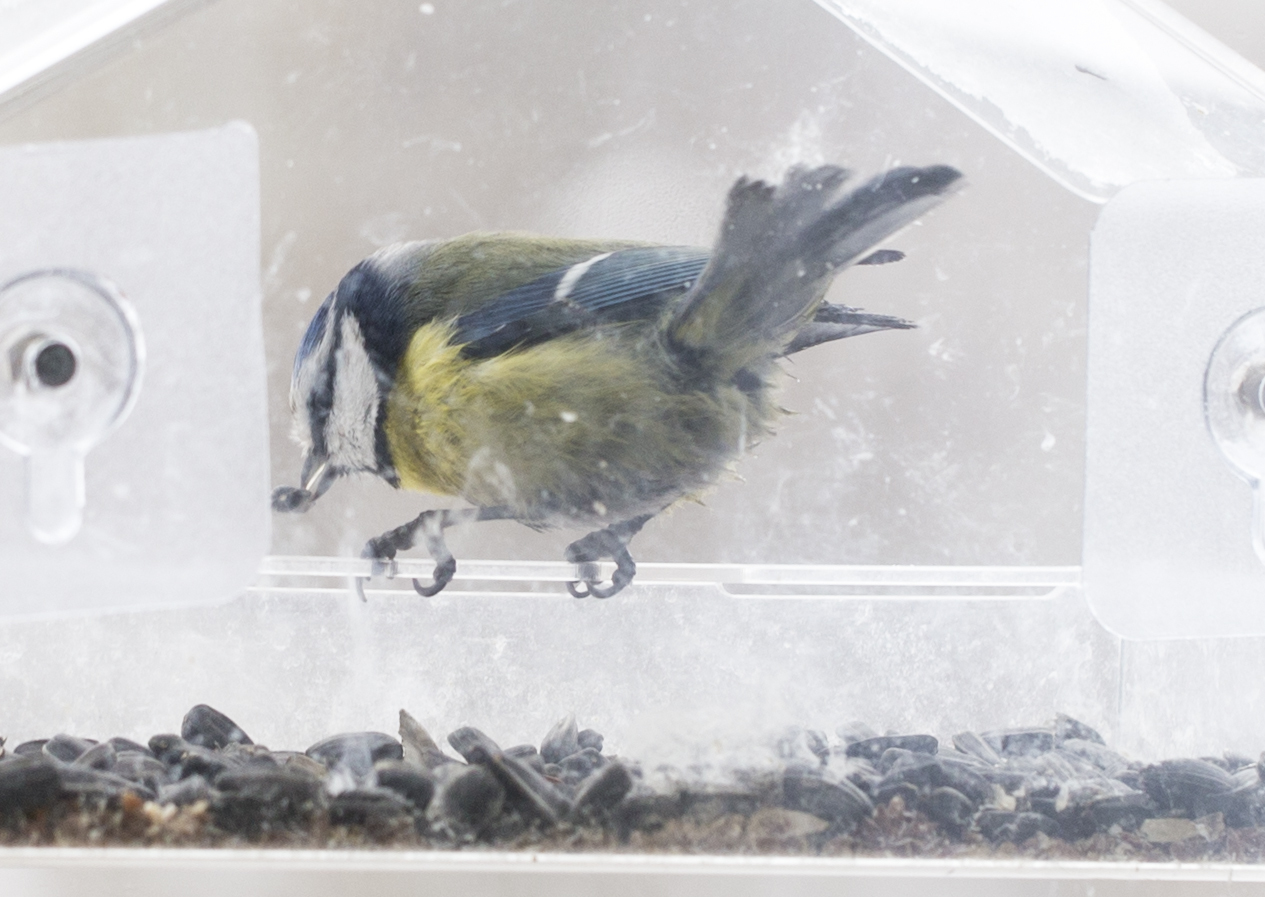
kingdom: Animalia
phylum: Chordata
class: Aves
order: Passeriformes
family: Paridae
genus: Cyanistes
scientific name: Cyanistes caeruleus
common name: Eurasian blue tit
